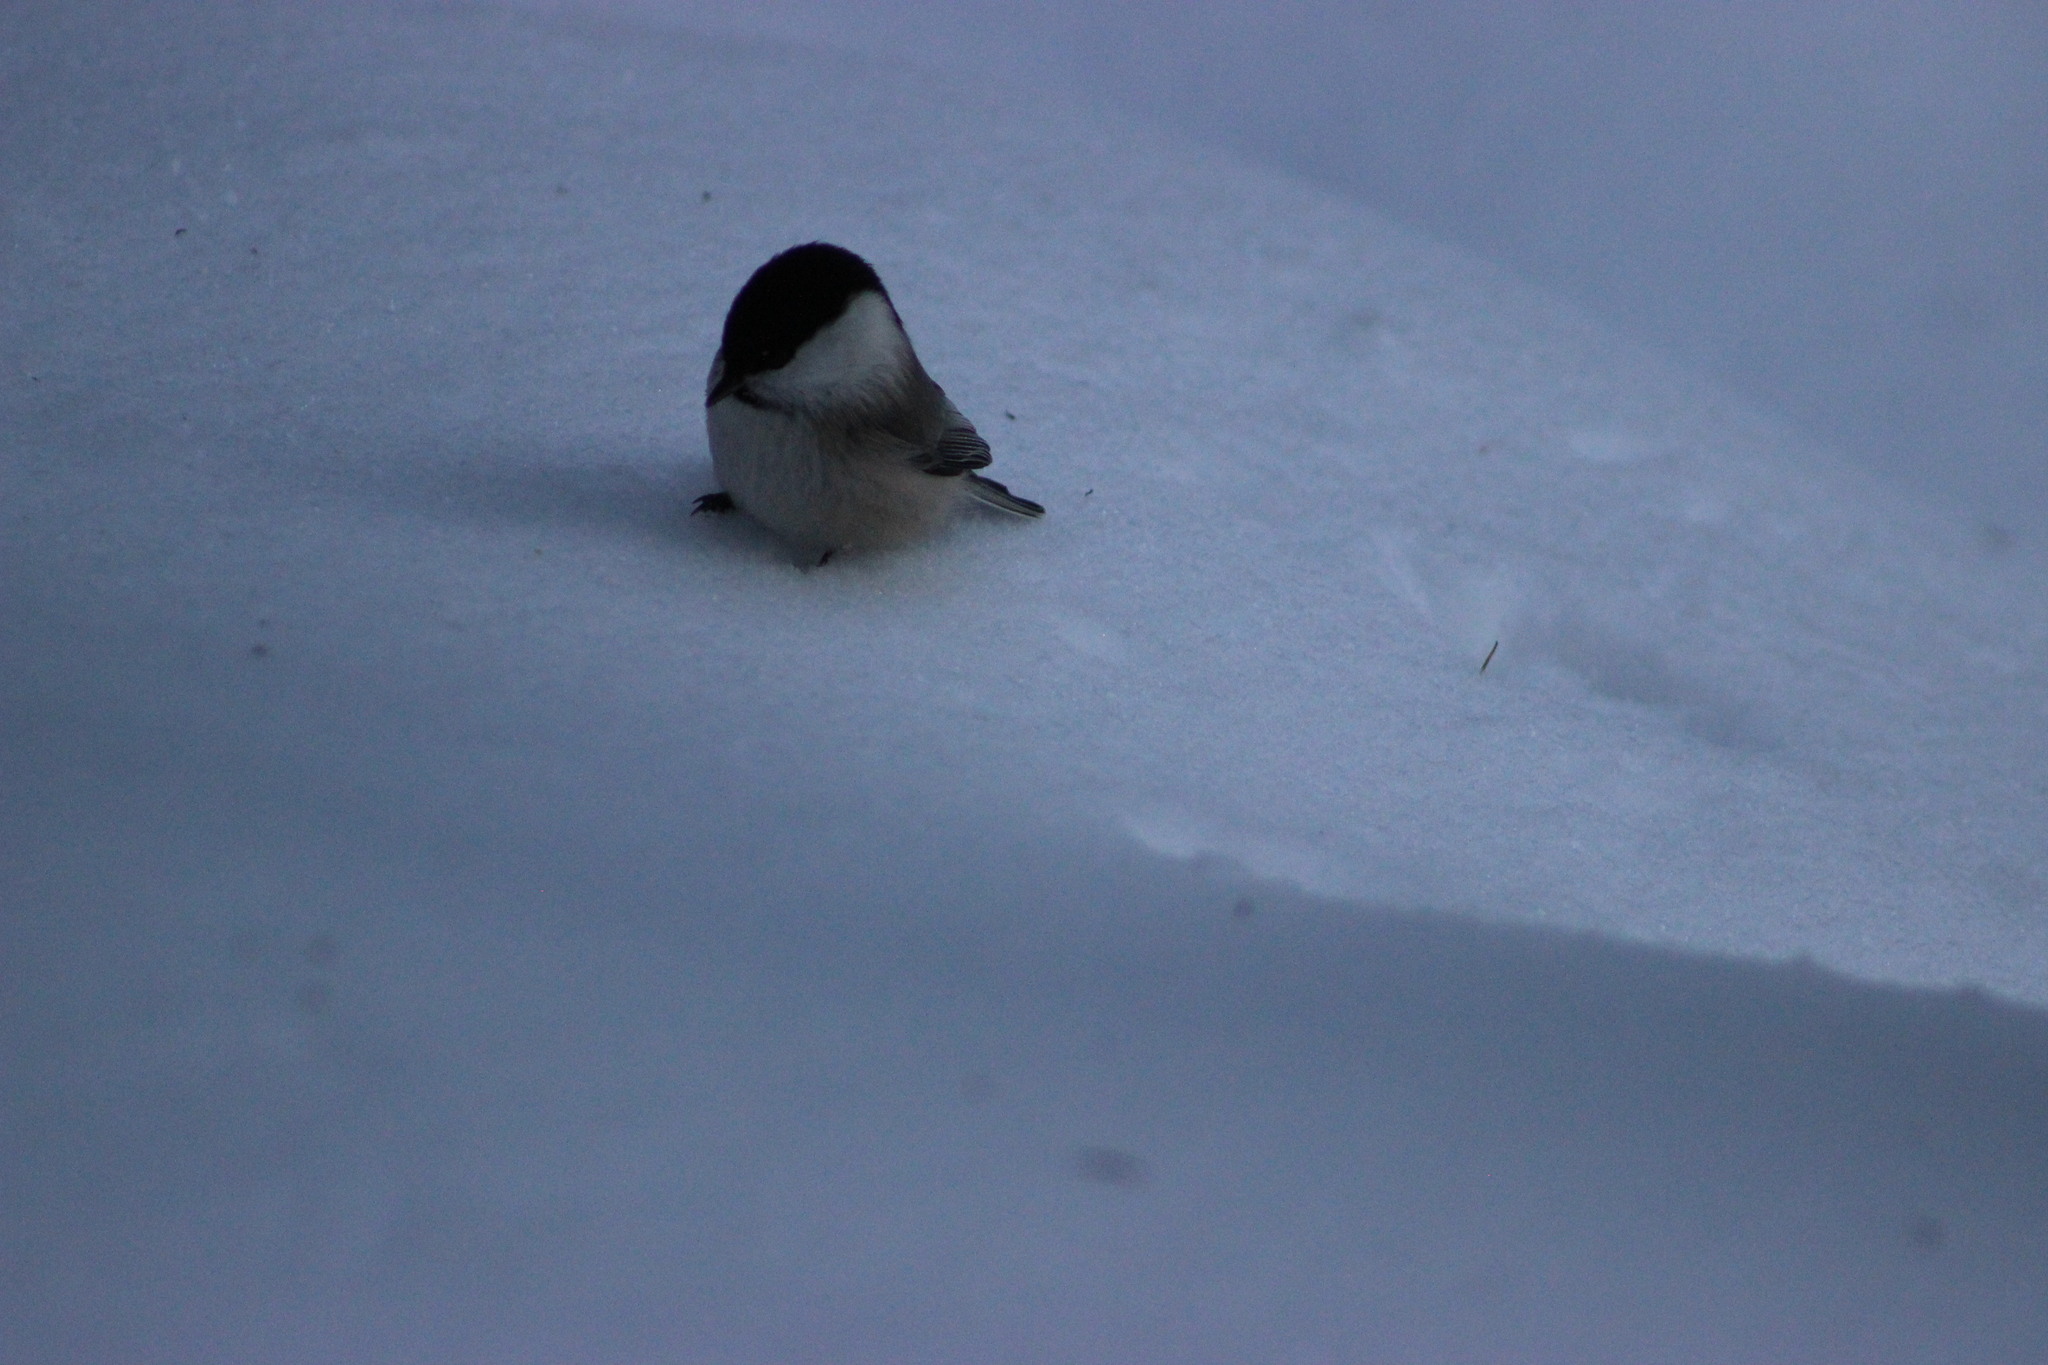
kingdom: Animalia
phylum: Chordata
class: Aves
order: Passeriformes
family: Paridae
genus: Poecile
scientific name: Poecile montanus
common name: Willow tit
